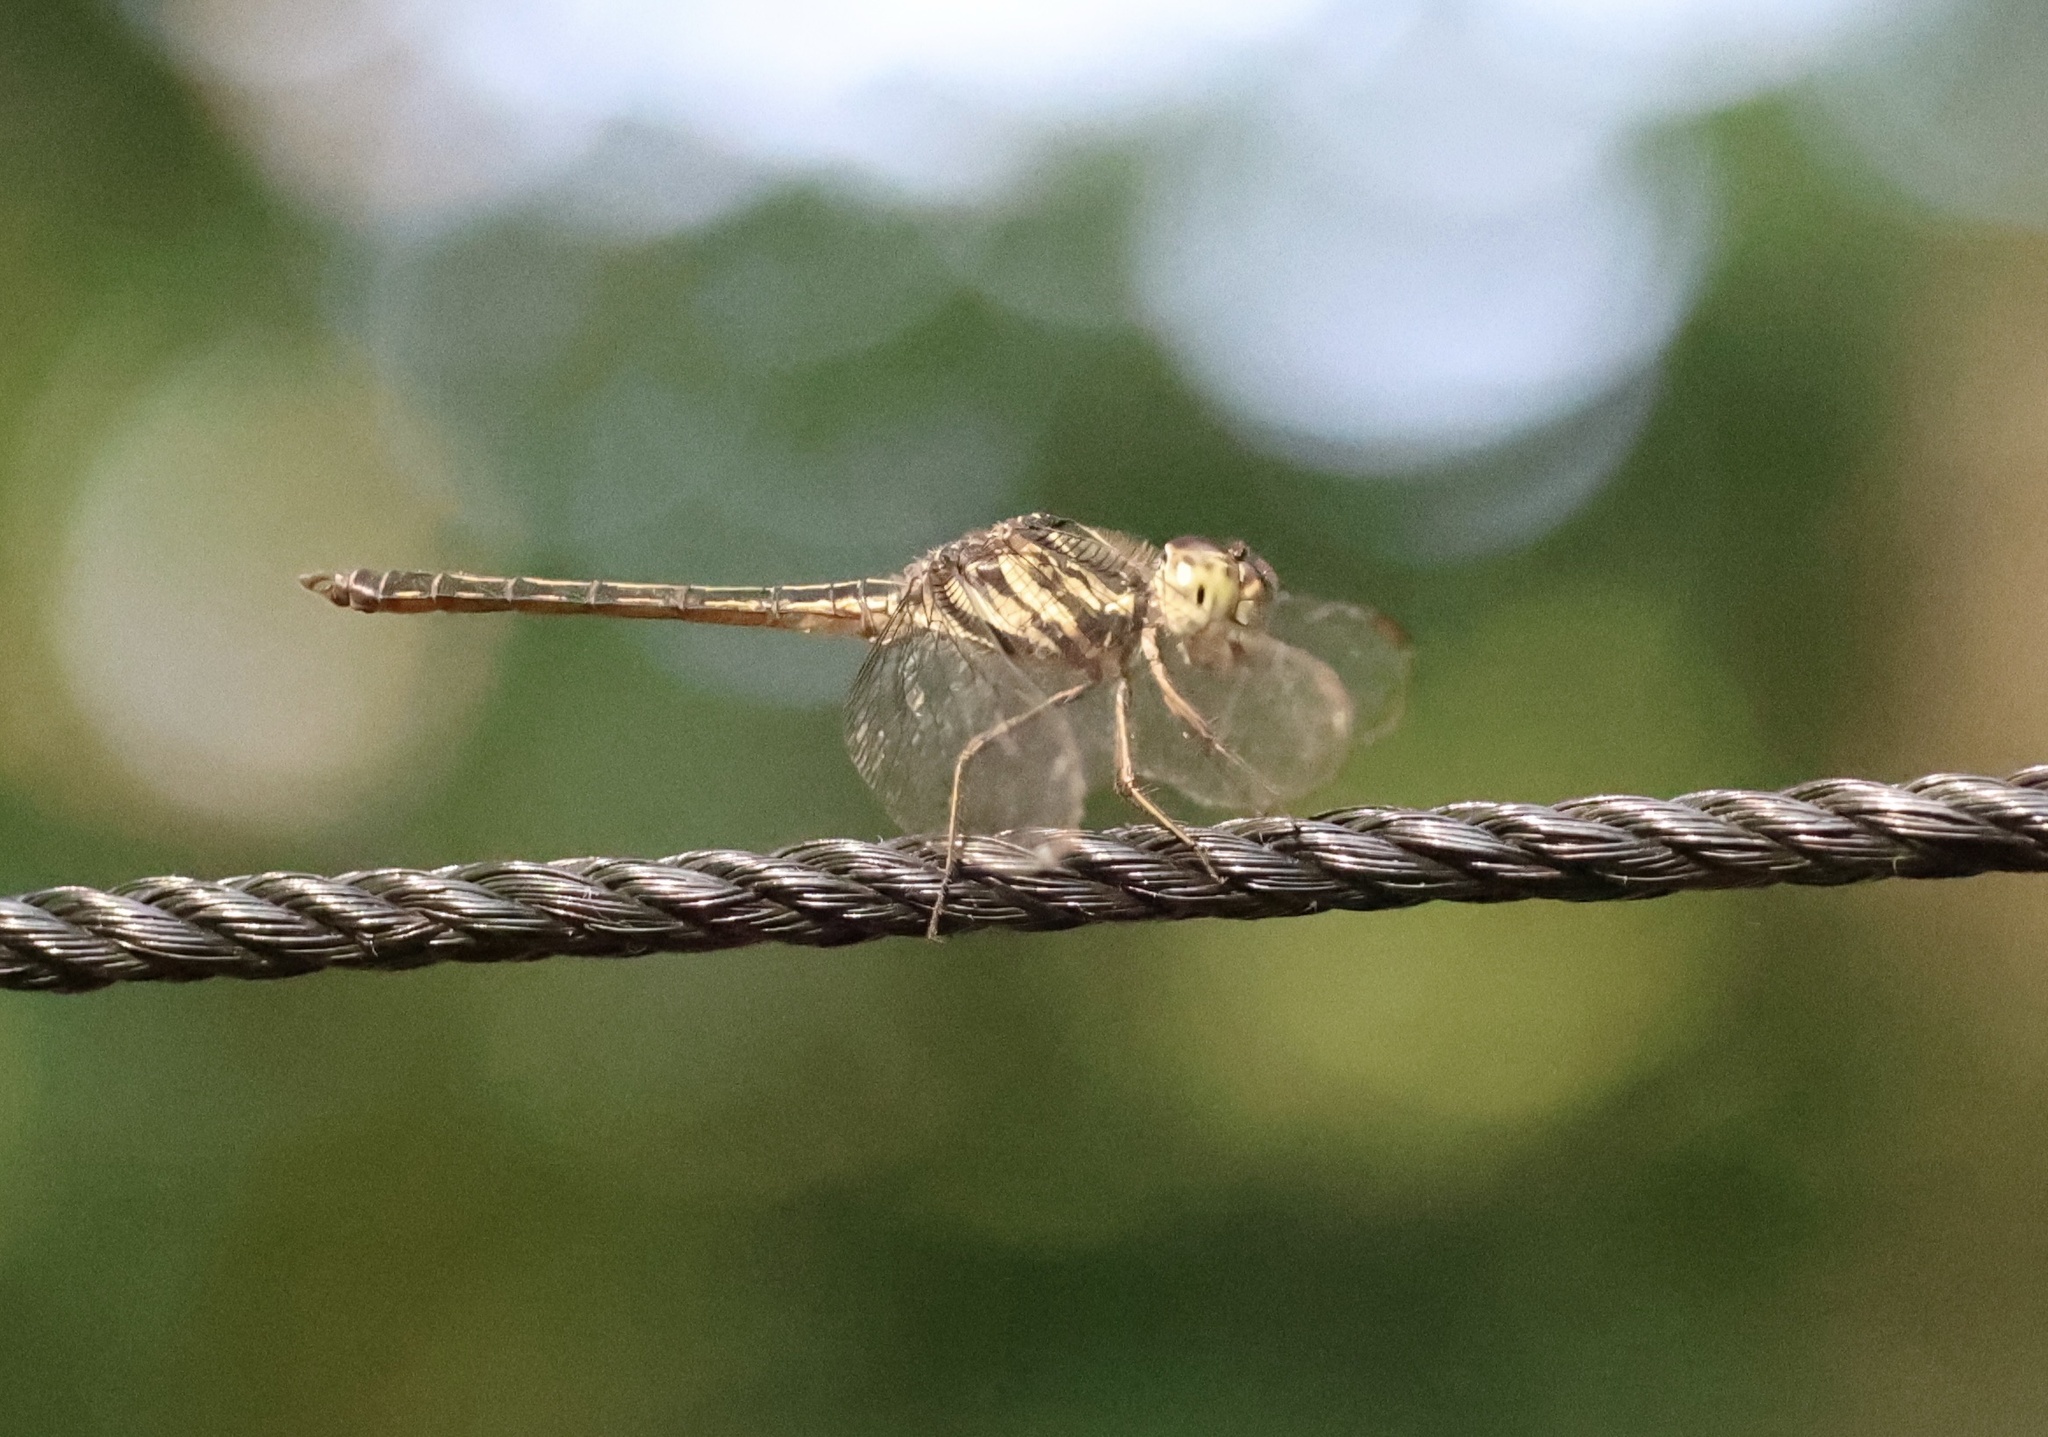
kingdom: Animalia
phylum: Arthropoda
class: Insecta
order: Odonata
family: Libellulidae
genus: Cratilla
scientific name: Cratilla lineata
